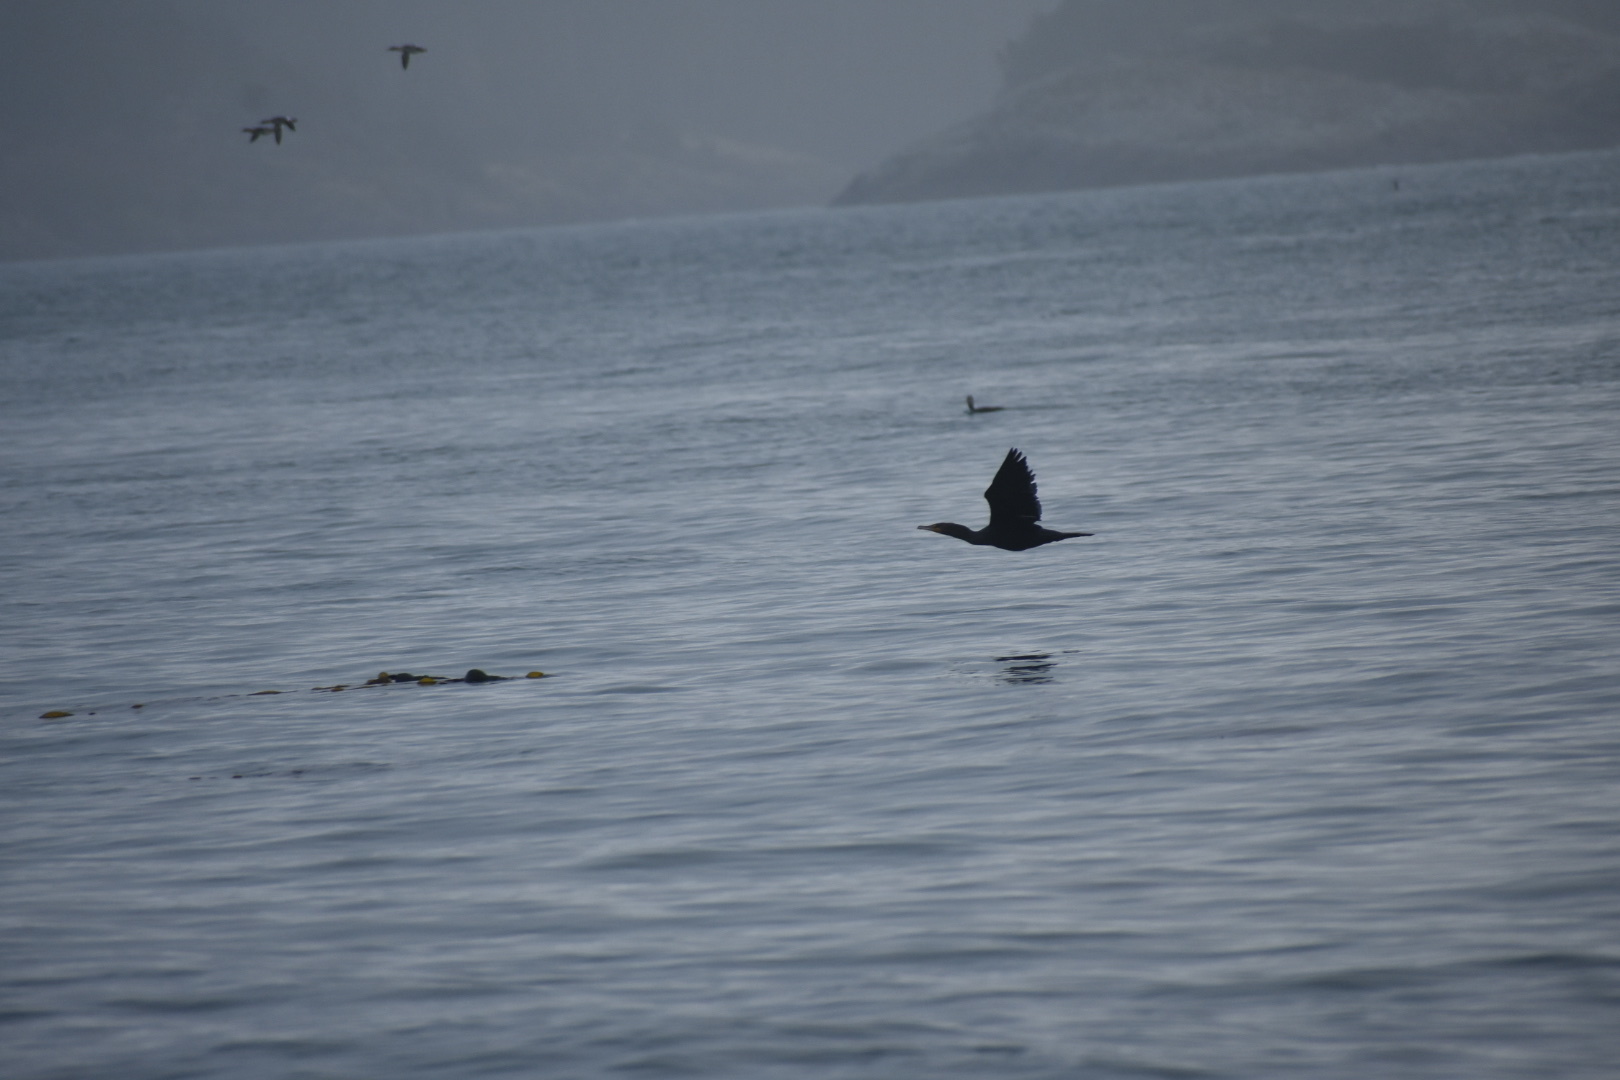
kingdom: Animalia
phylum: Chordata
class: Aves
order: Suliformes
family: Phalacrocoracidae
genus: Phalacrocorax
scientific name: Phalacrocorax auritus
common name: Double-crested cormorant
